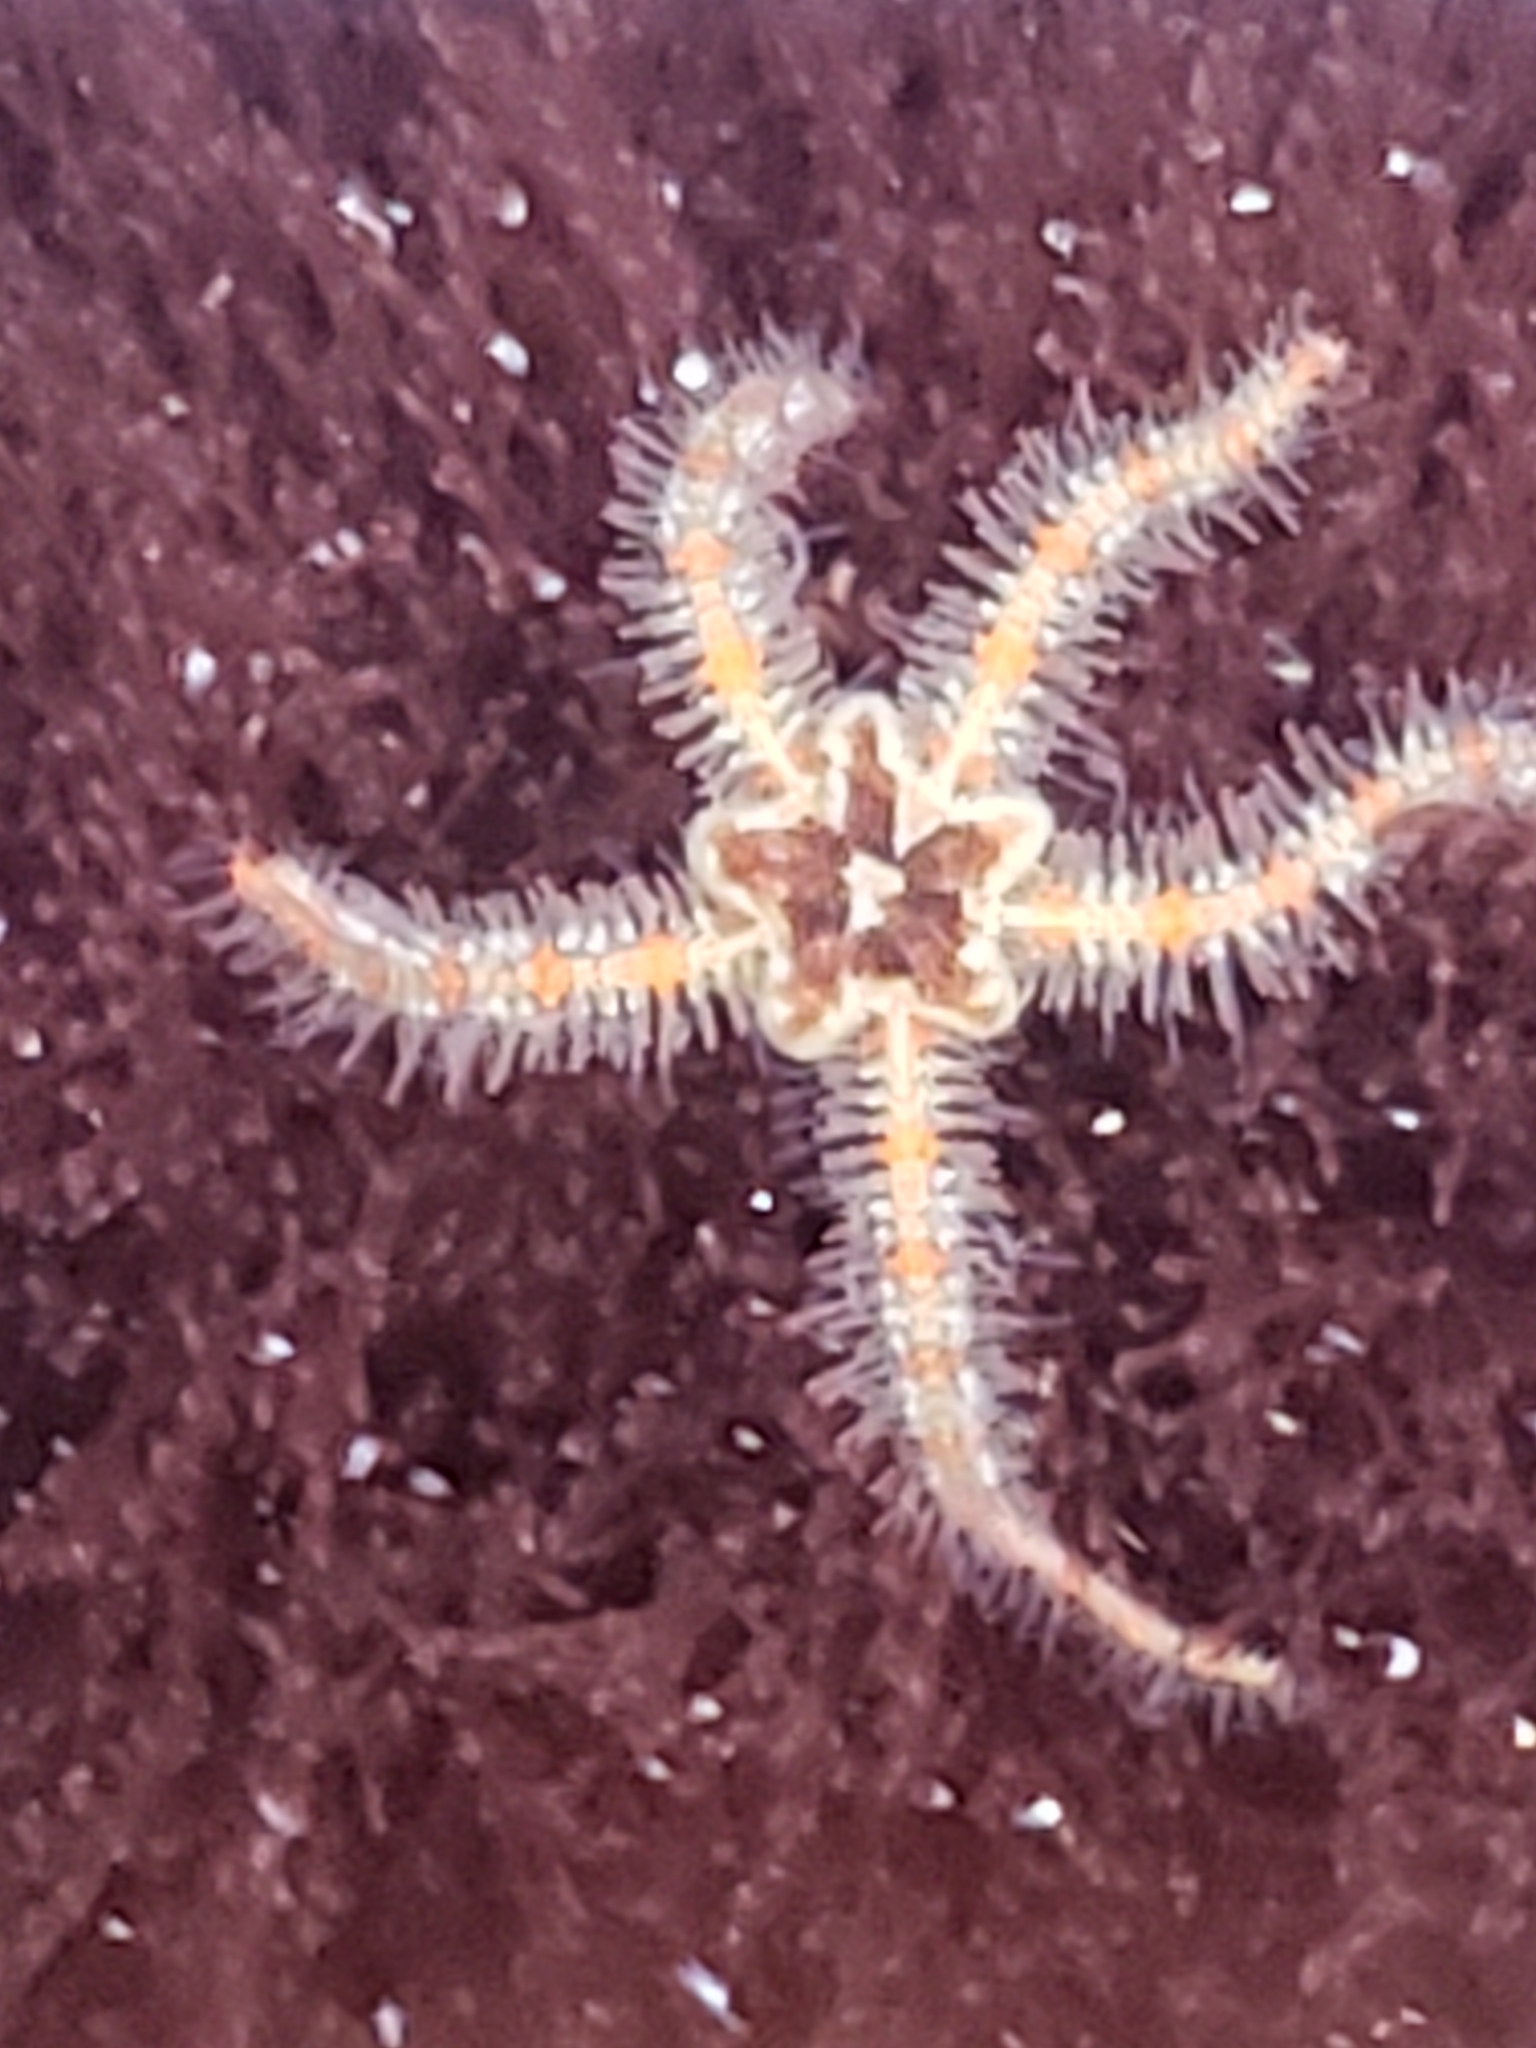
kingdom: Animalia
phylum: Echinodermata
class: Ophiuroidea
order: Amphilepidida
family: Ophiotrichidae
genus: Ophiothrix
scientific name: Ophiothrix spiculata
